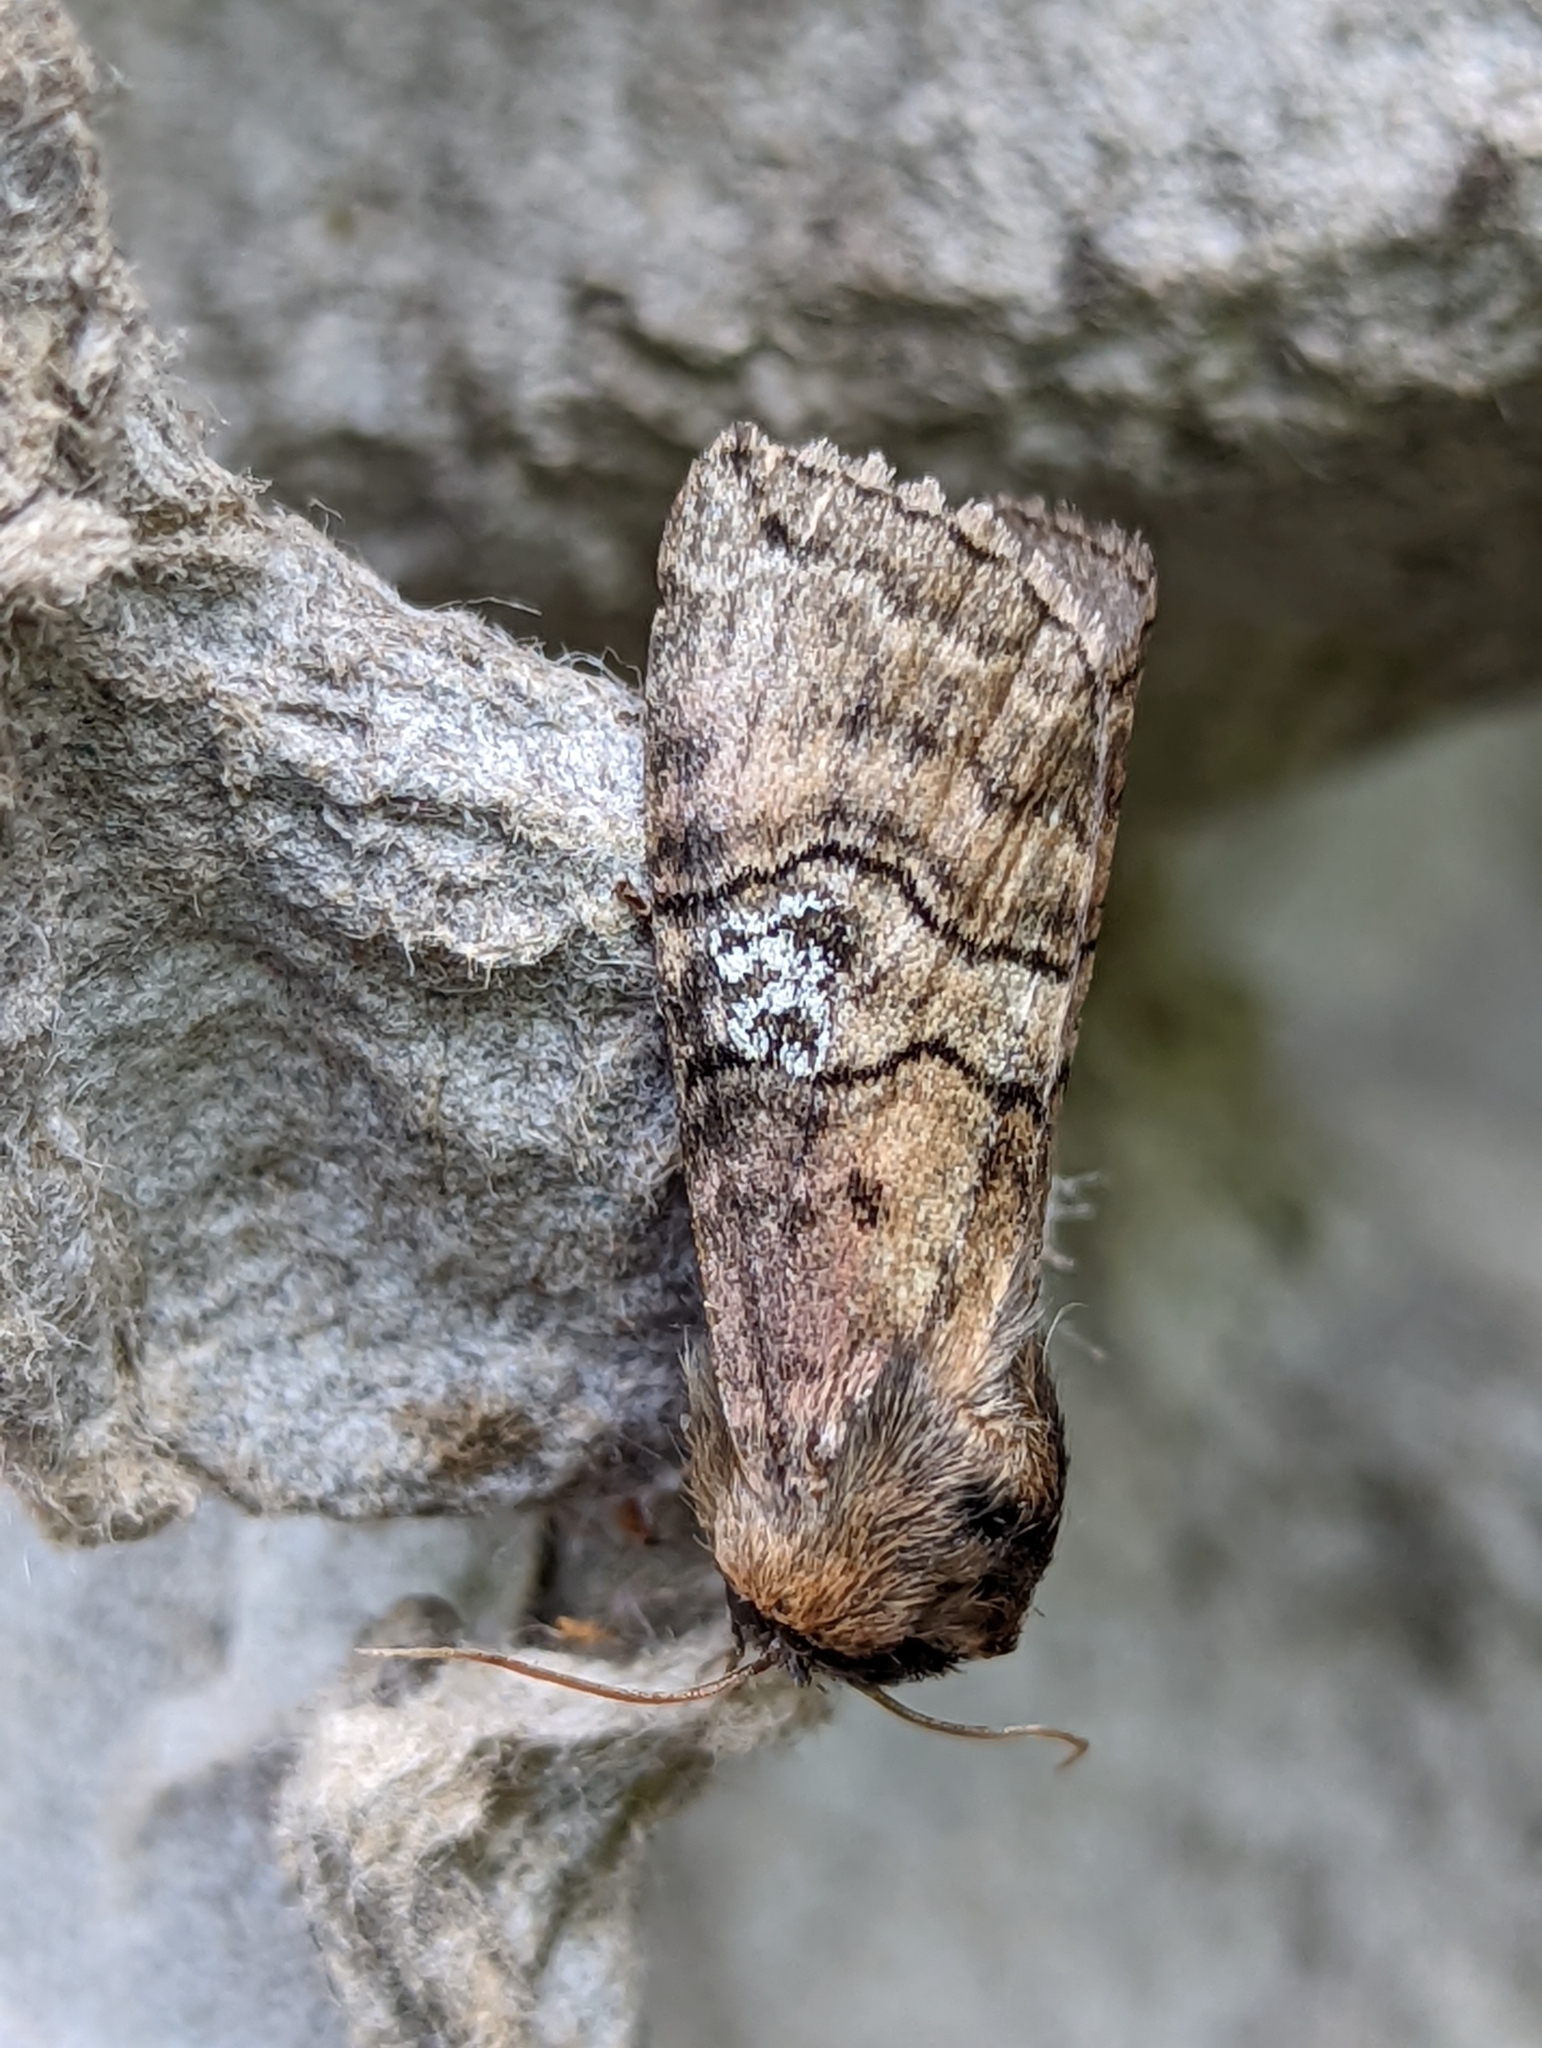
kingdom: Animalia
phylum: Arthropoda
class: Insecta
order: Lepidoptera
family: Drepanidae
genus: Tethea
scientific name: Tethea ocularis
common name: Figure of eighty
